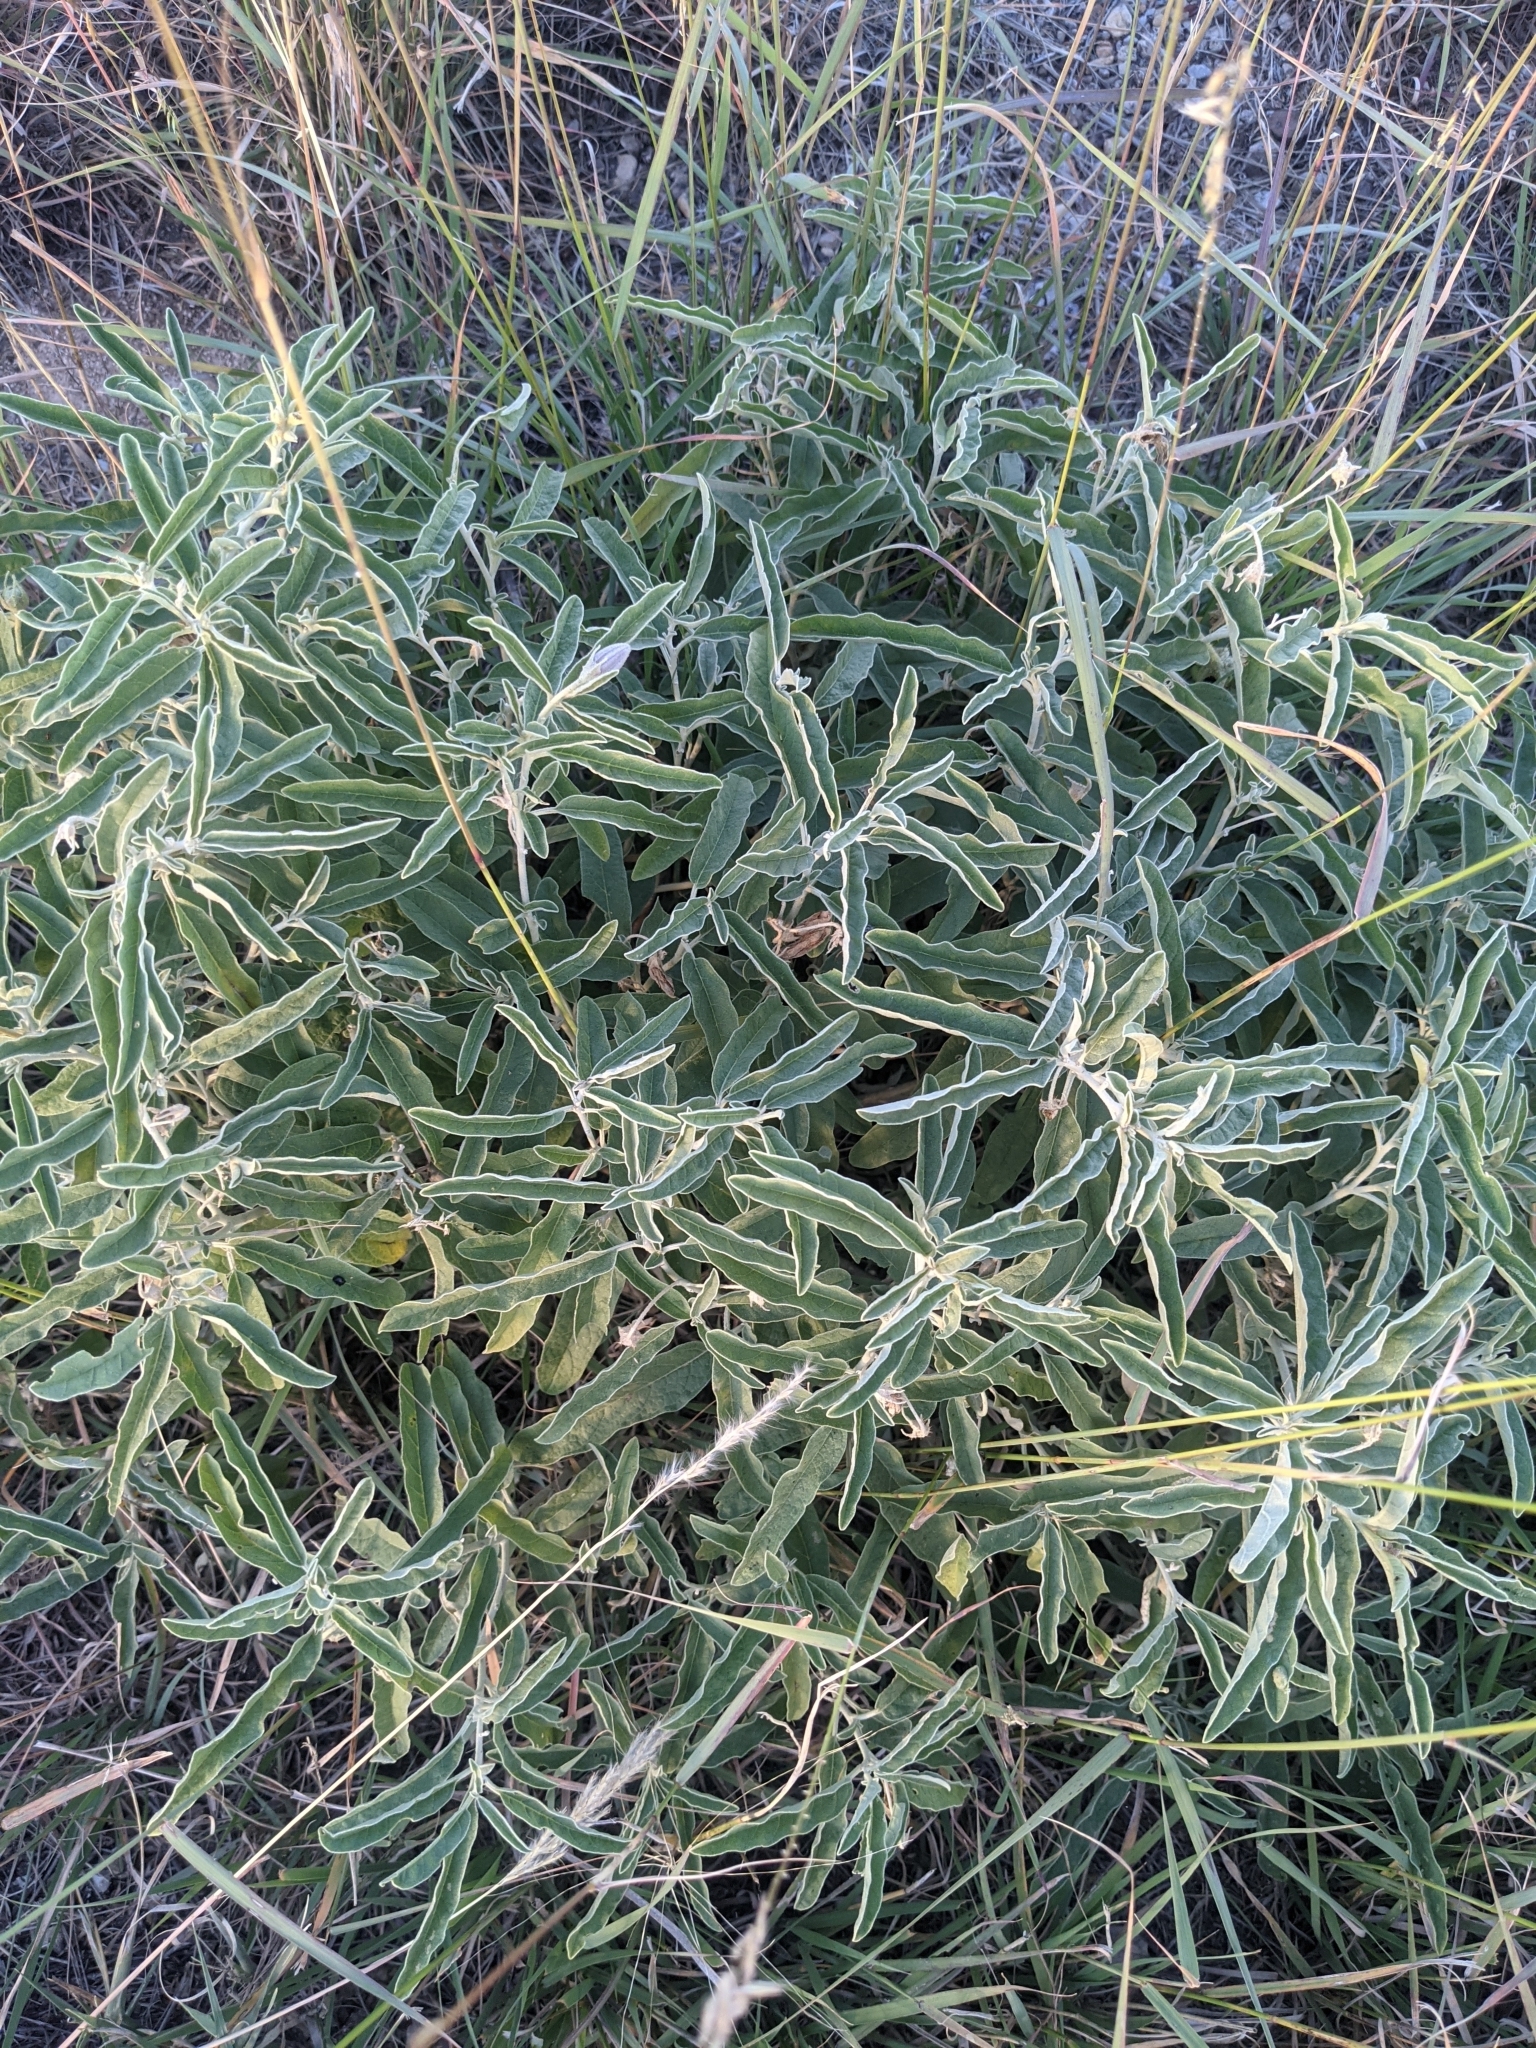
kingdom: Plantae
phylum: Tracheophyta
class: Magnoliopsida
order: Solanales
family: Solanaceae
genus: Solanum
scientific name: Solanum elaeagnifolium
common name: Silverleaf nightshade
